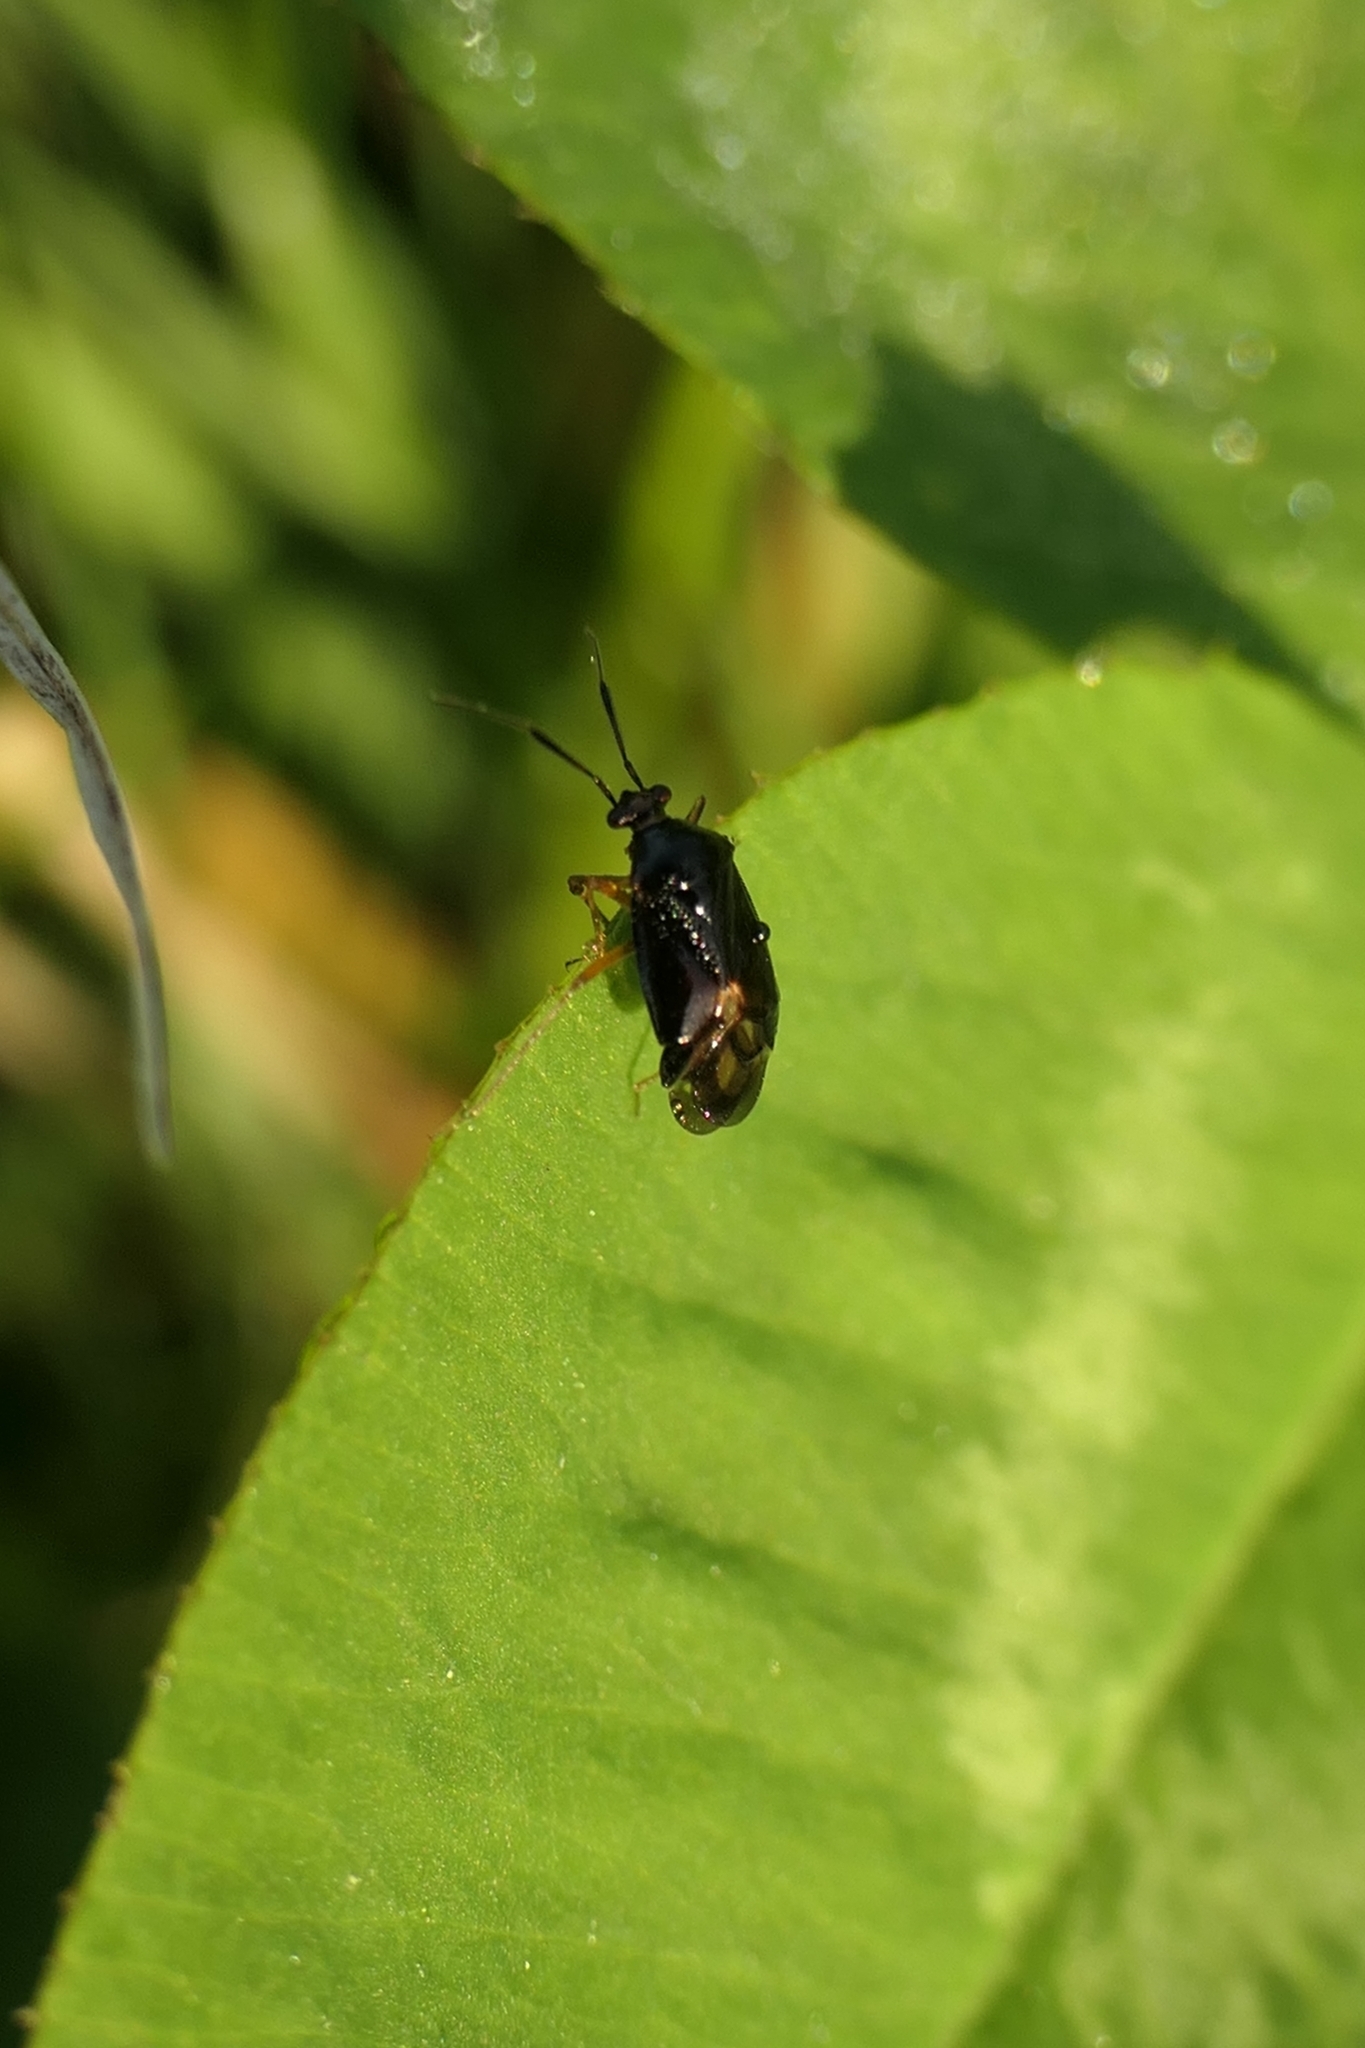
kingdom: Animalia
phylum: Arthropoda
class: Insecta
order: Hemiptera
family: Miridae
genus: Deraeocoris
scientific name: Deraeocoris maoricus
